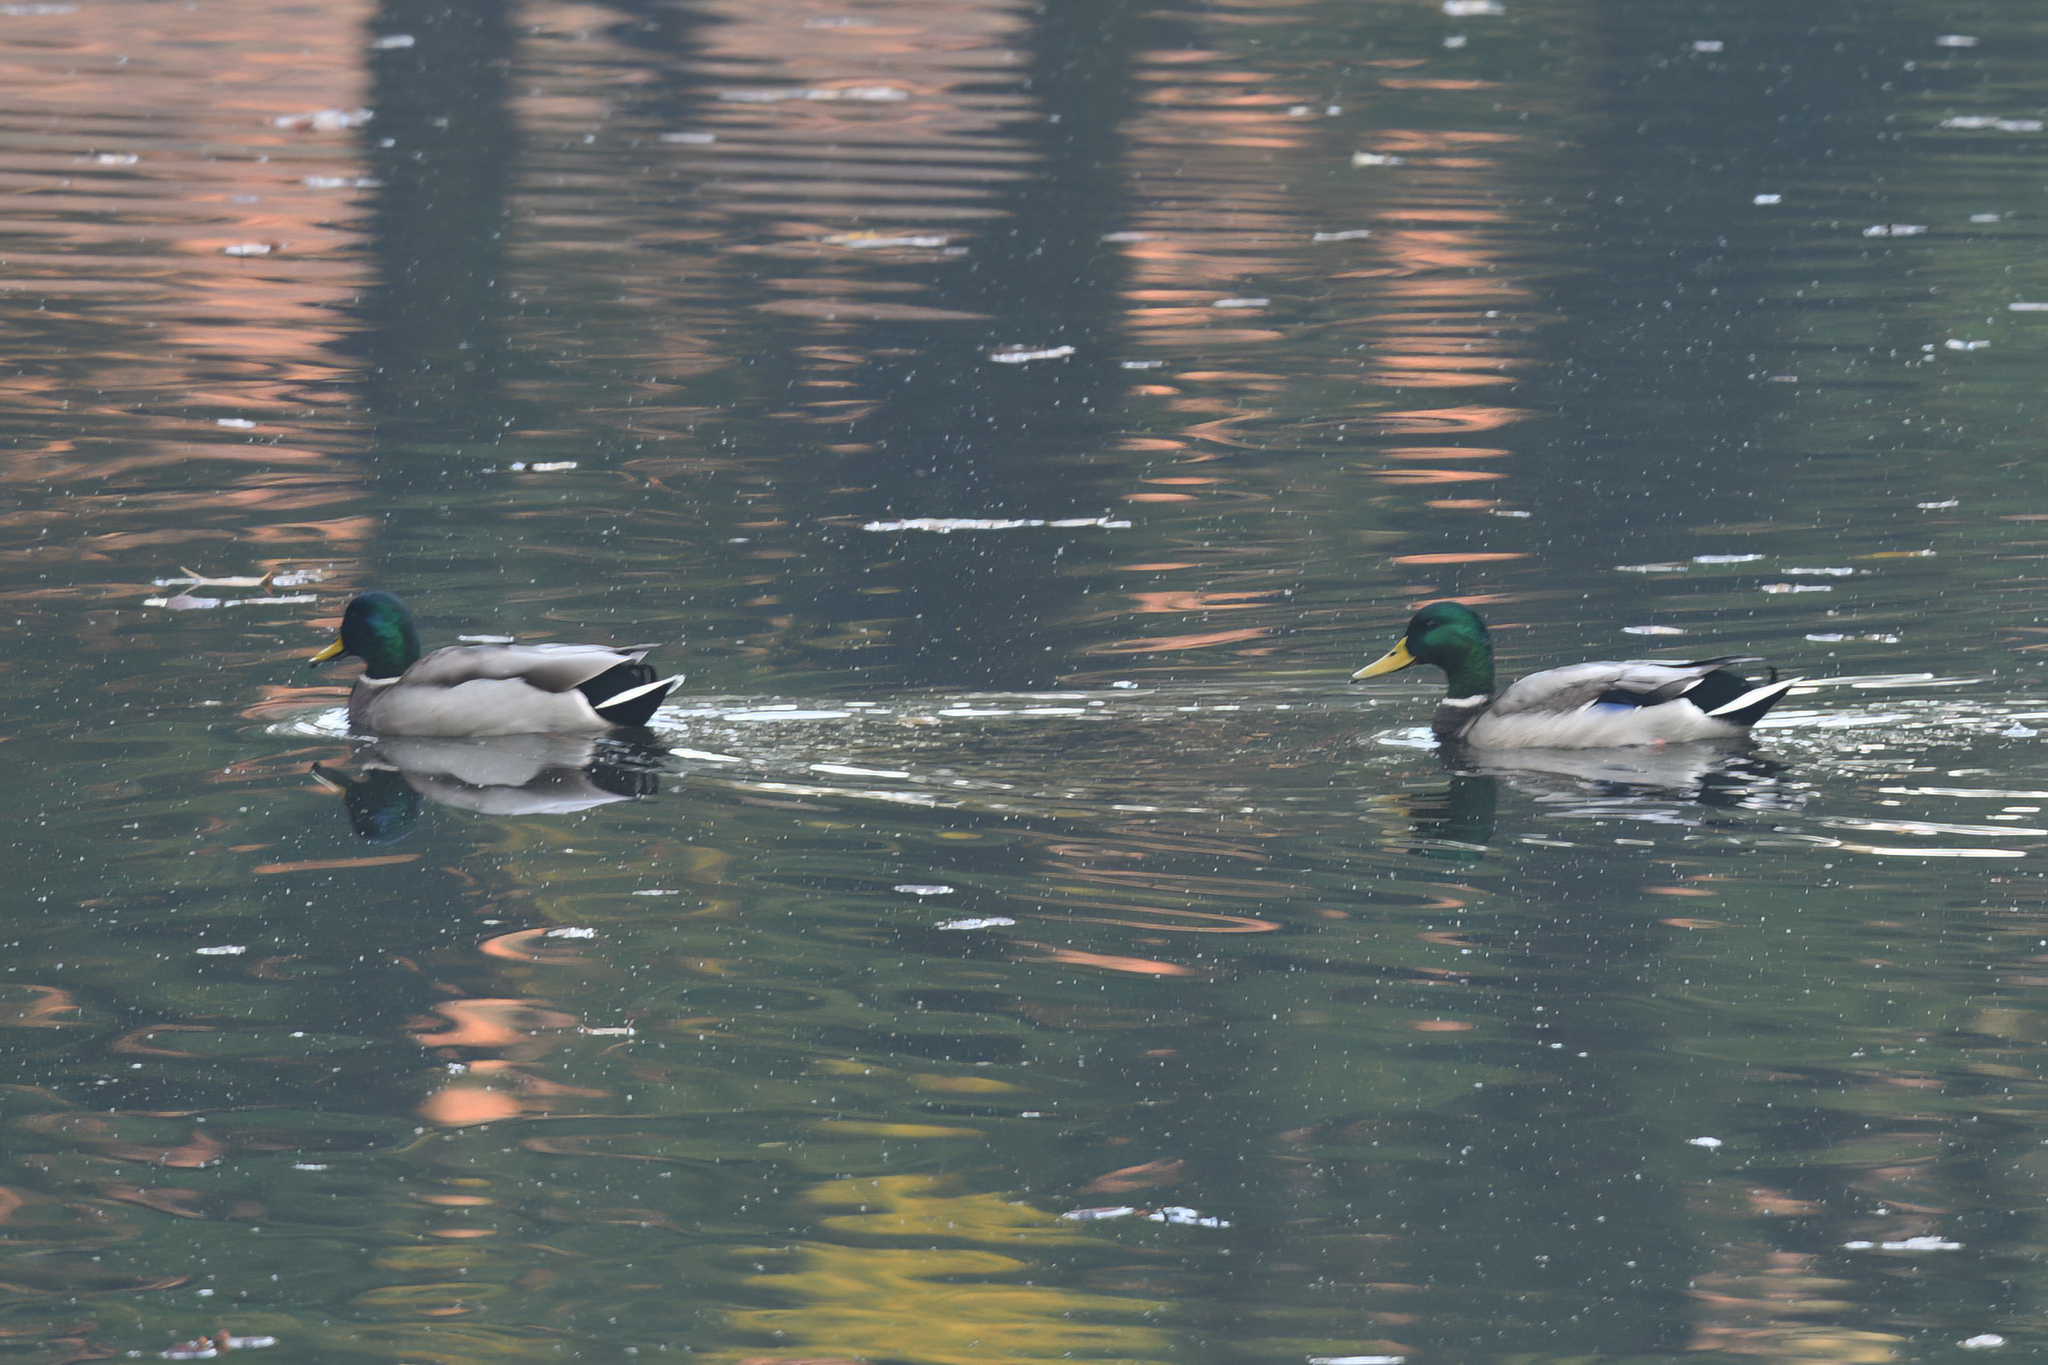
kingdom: Animalia
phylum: Chordata
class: Aves
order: Anseriformes
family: Anatidae
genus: Anas
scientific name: Anas platyrhynchos
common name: Mallard
